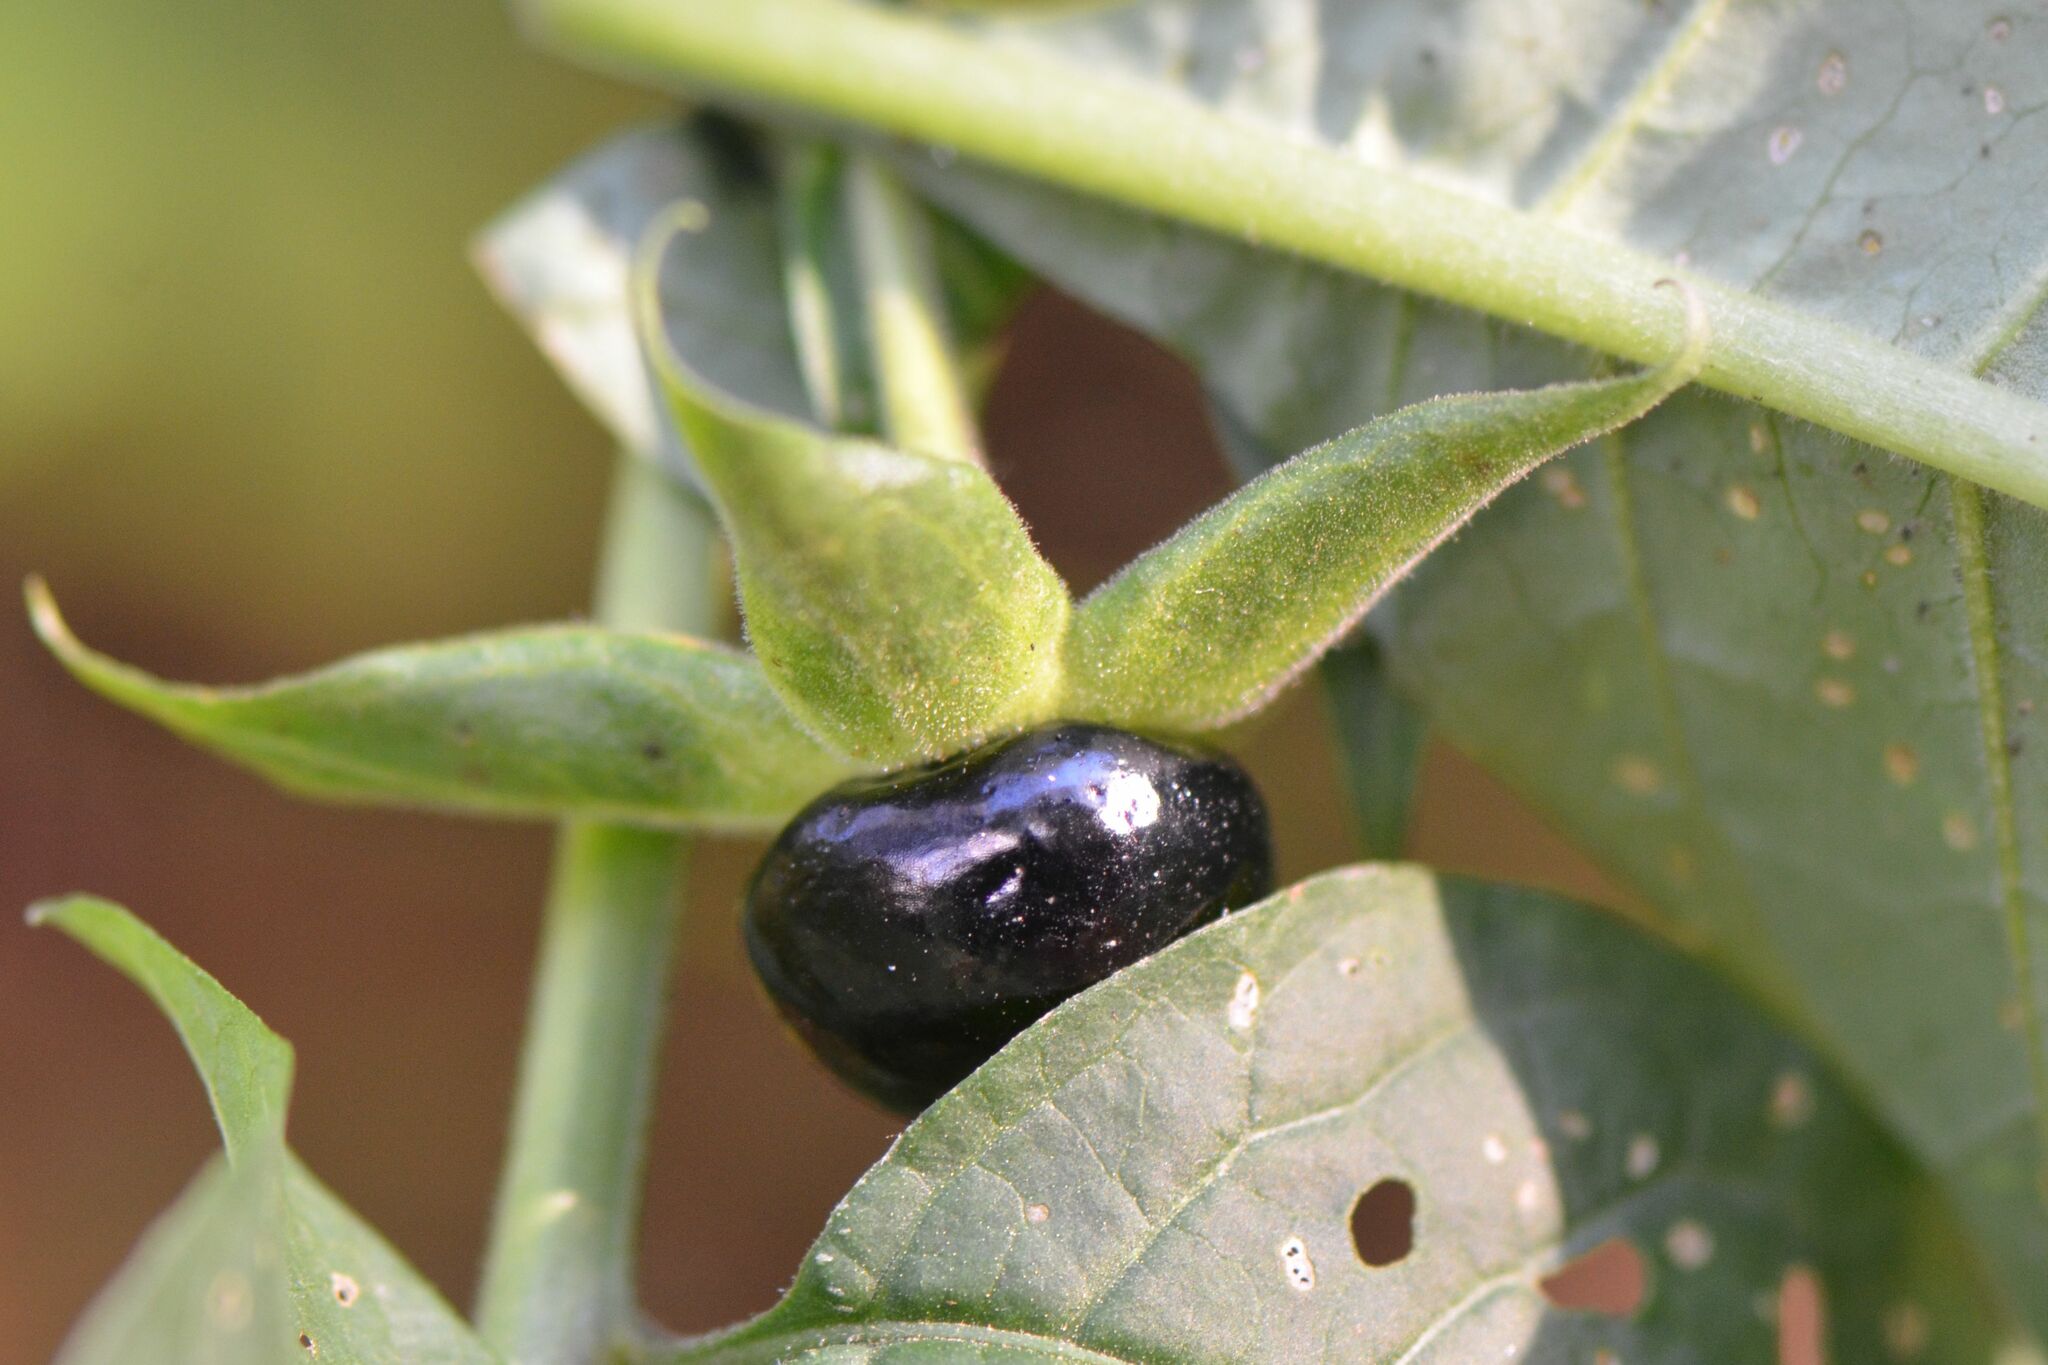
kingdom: Plantae
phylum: Tracheophyta
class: Magnoliopsida
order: Solanales
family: Solanaceae
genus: Atropa
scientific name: Atropa belladonna
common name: Deadly nightshade
